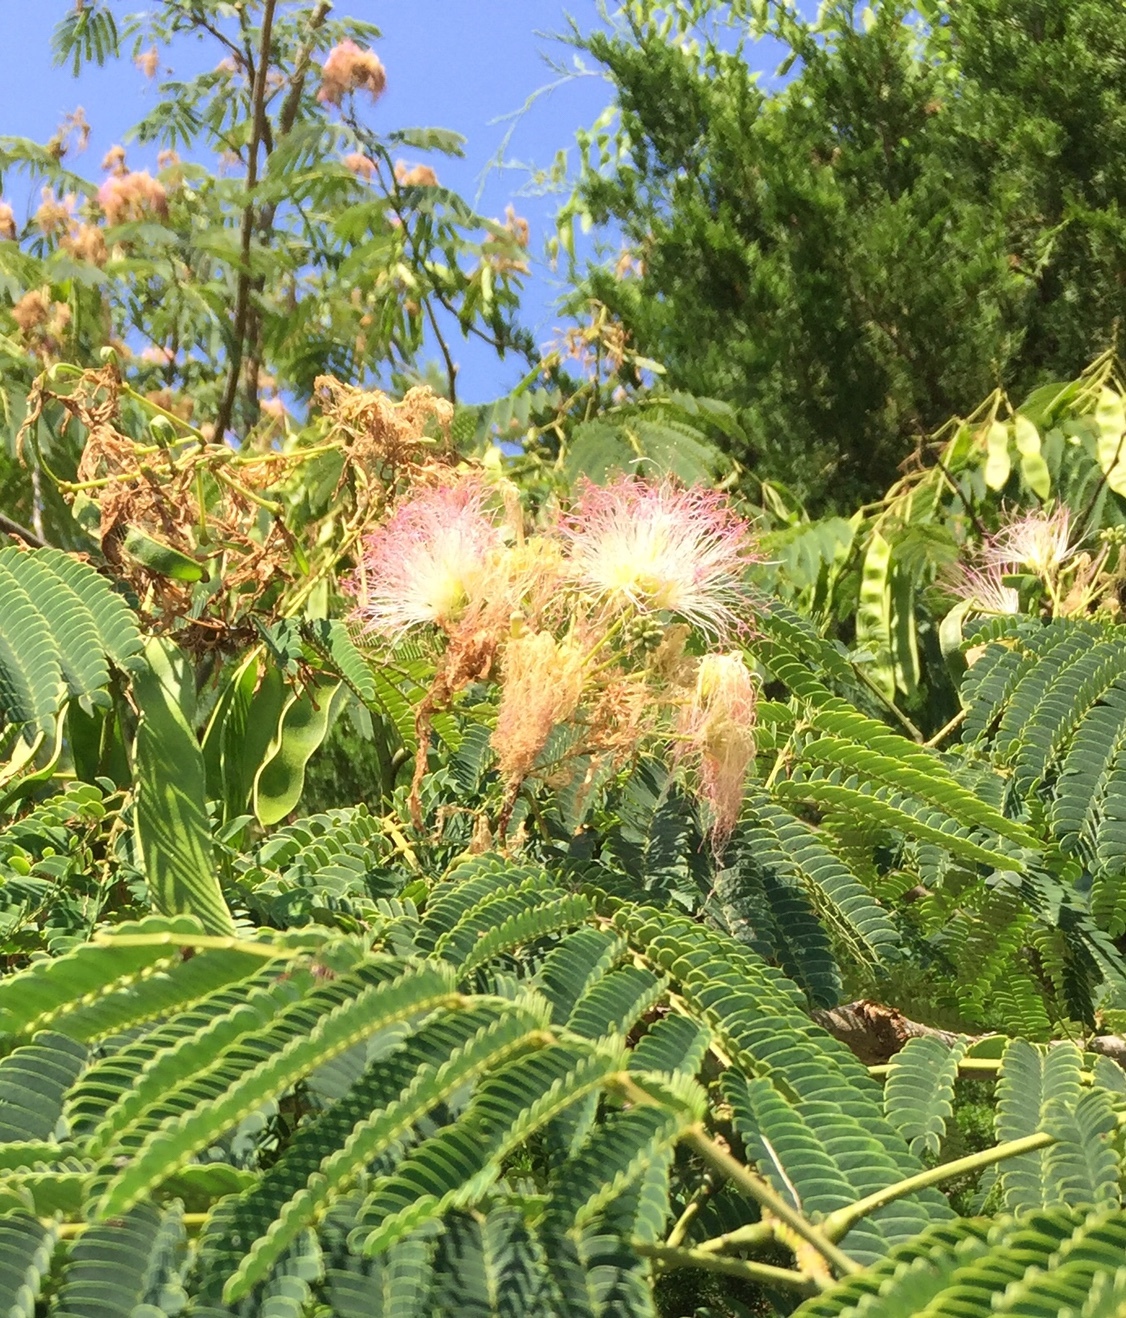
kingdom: Plantae
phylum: Tracheophyta
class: Magnoliopsida
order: Fabales
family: Fabaceae
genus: Albizia
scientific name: Albizia julibrissin
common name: Silktree
